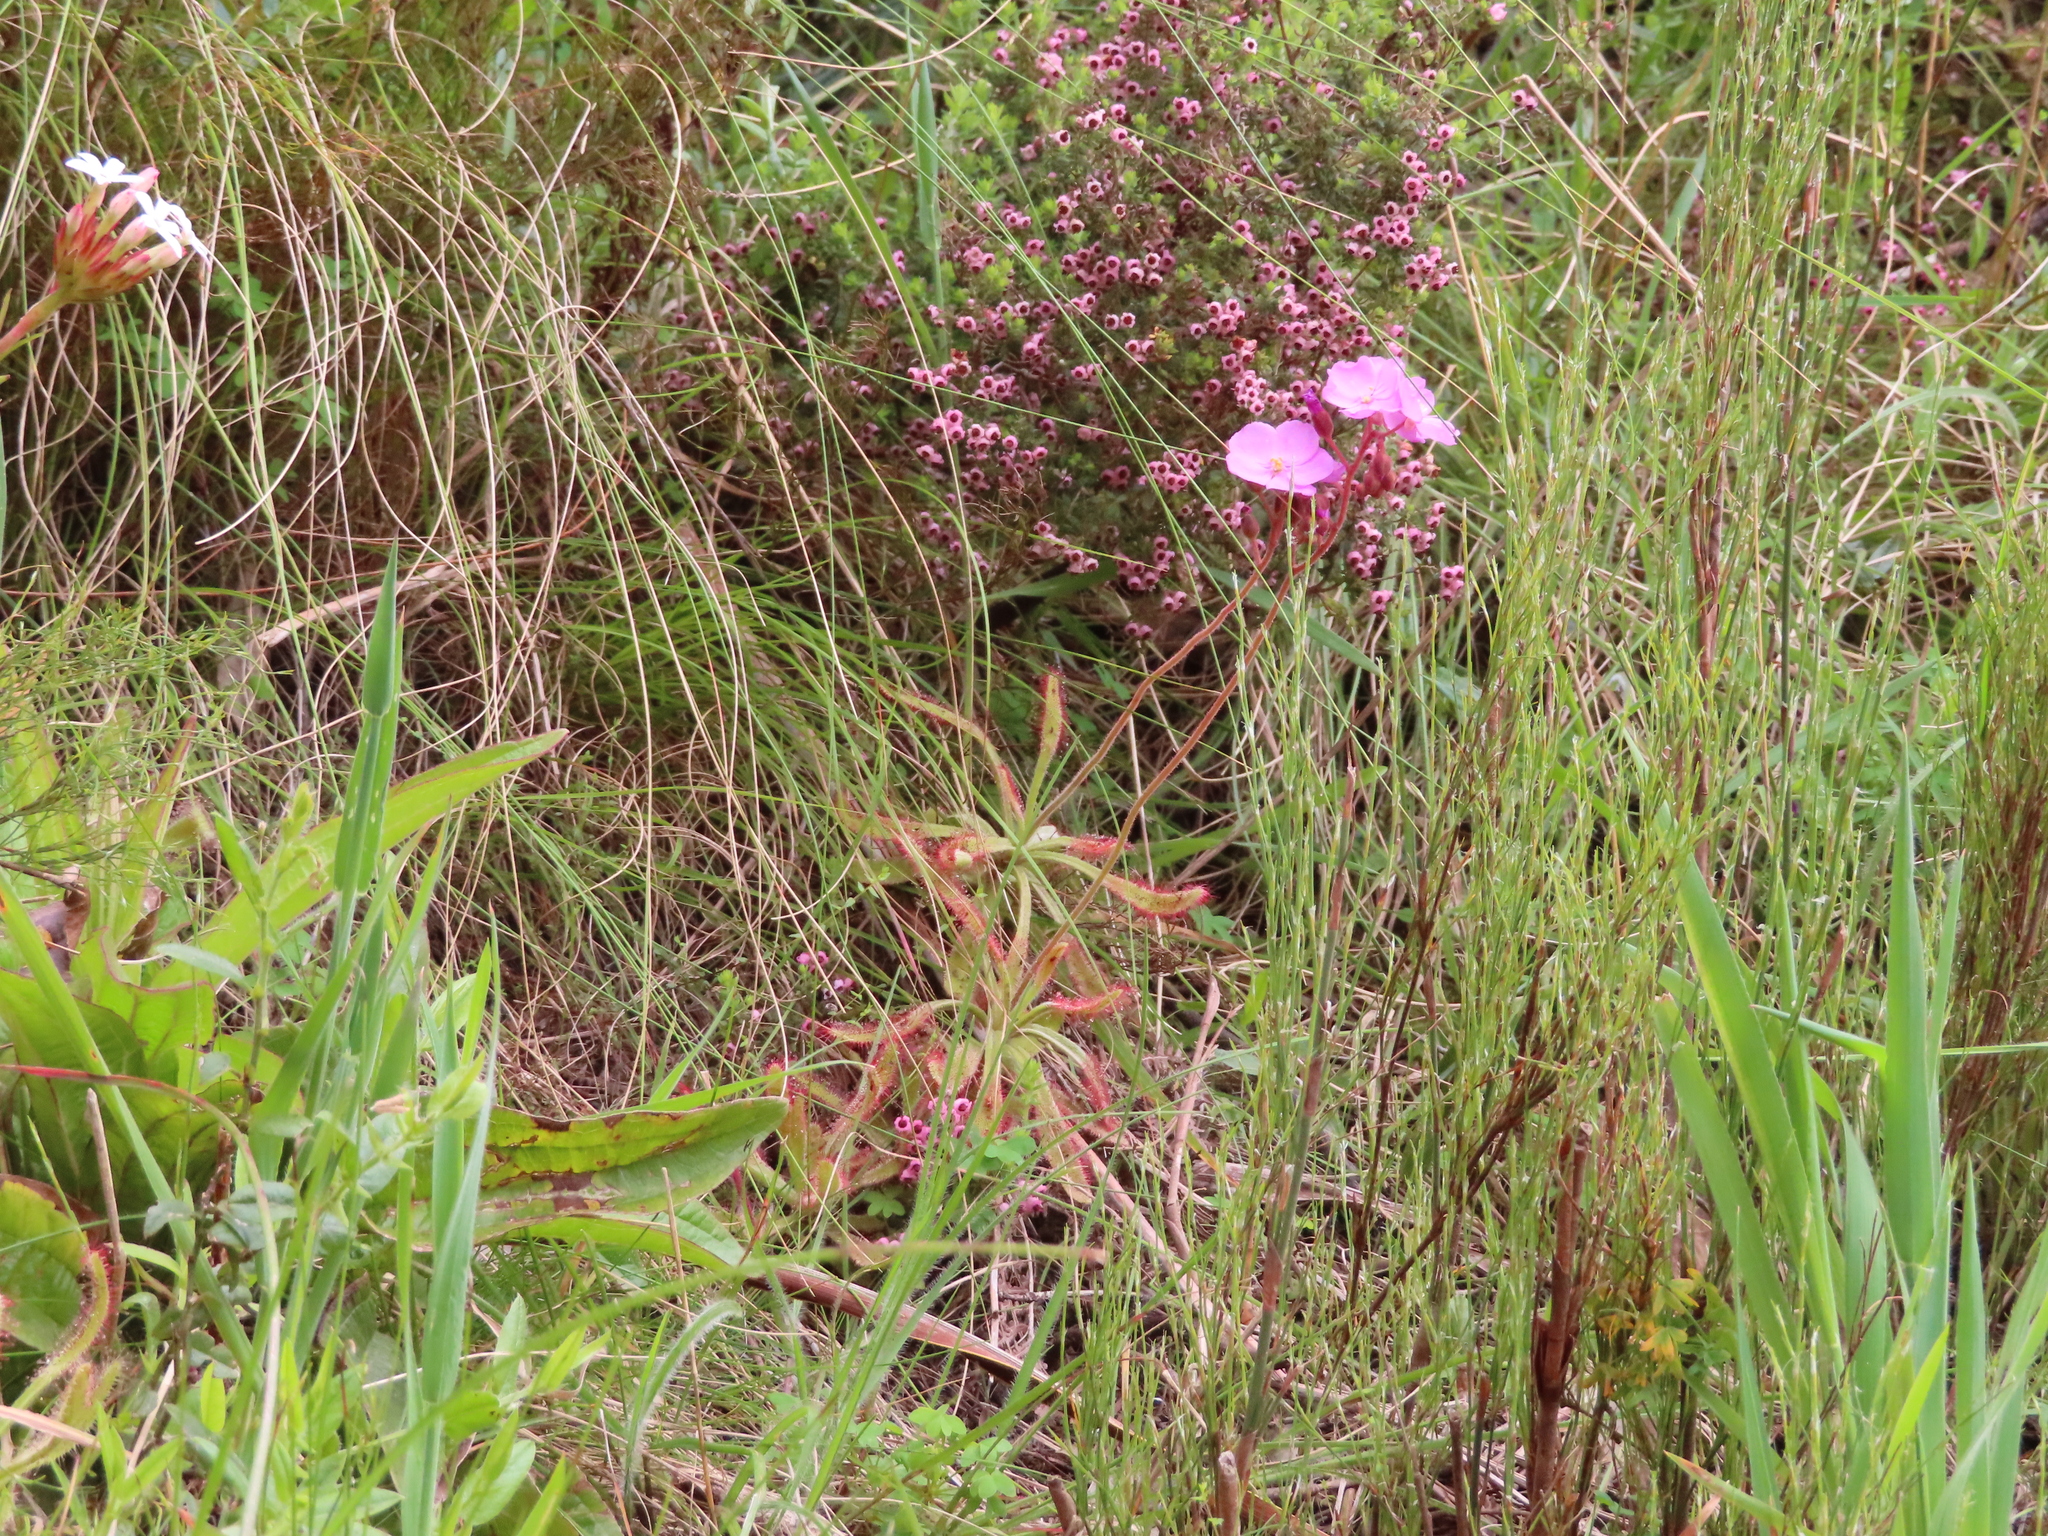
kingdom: Plantae
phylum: Tracheophyta
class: Magnoliopsida
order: Caryophyllales
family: Droseraceae
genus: Drosera
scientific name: Drosera hilaris
